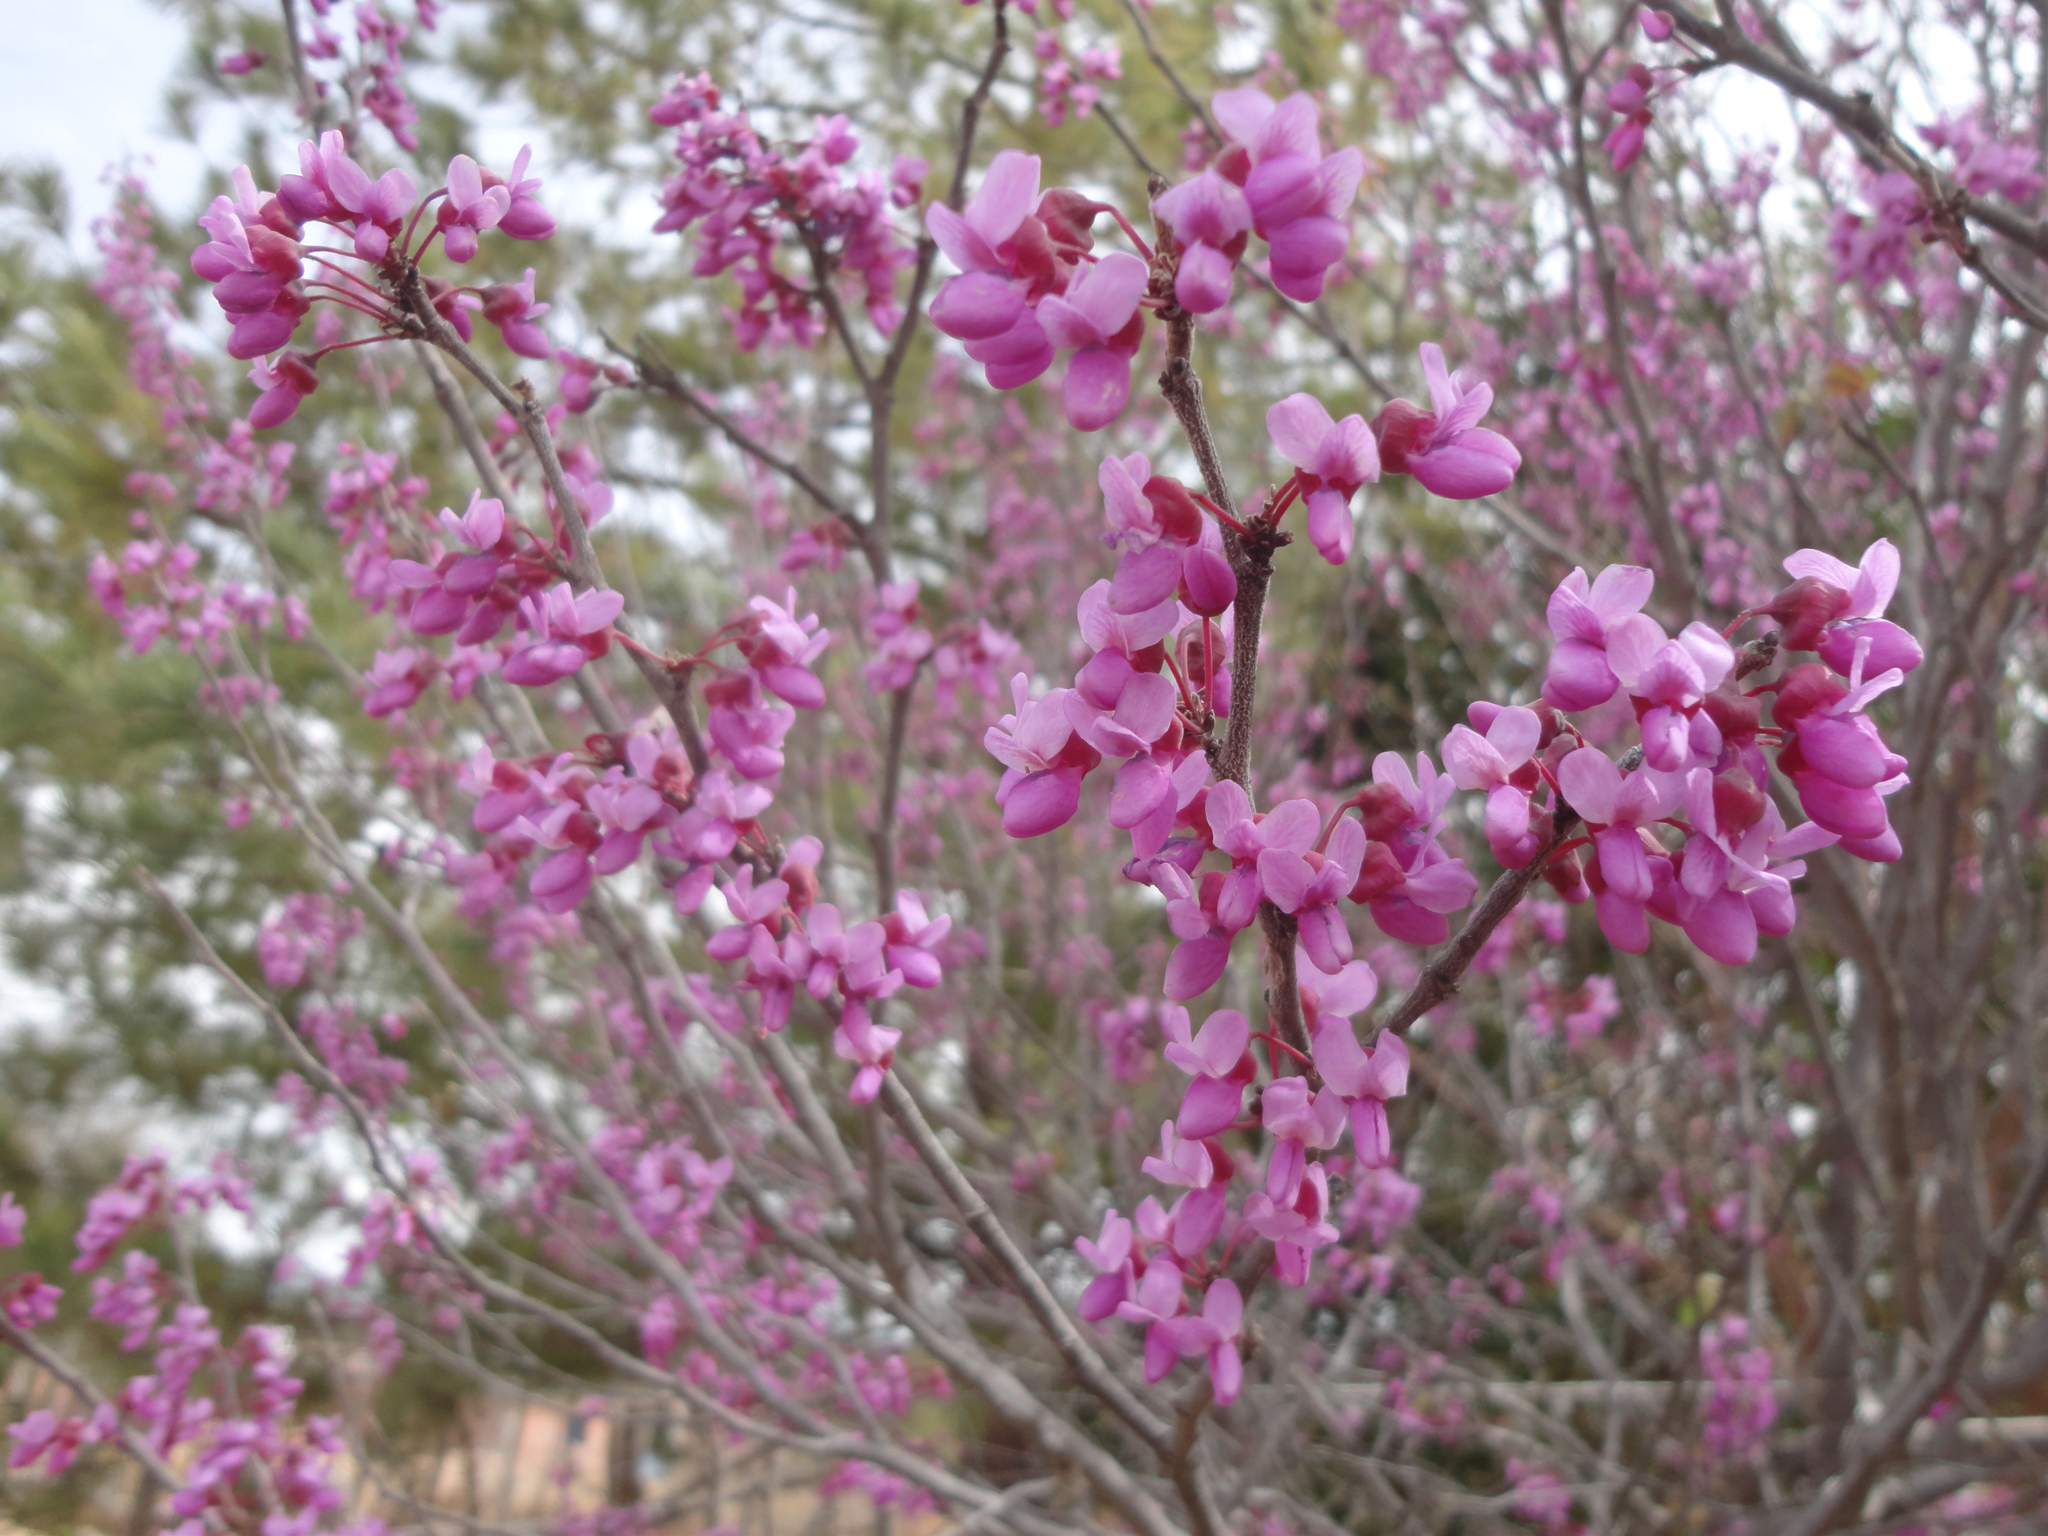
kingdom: Plantae
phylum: Tracheophyta
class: Magnoliopsida
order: Fabales
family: Fabaceae
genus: Cercis
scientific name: Cercis canadensis
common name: Eastern redbud
